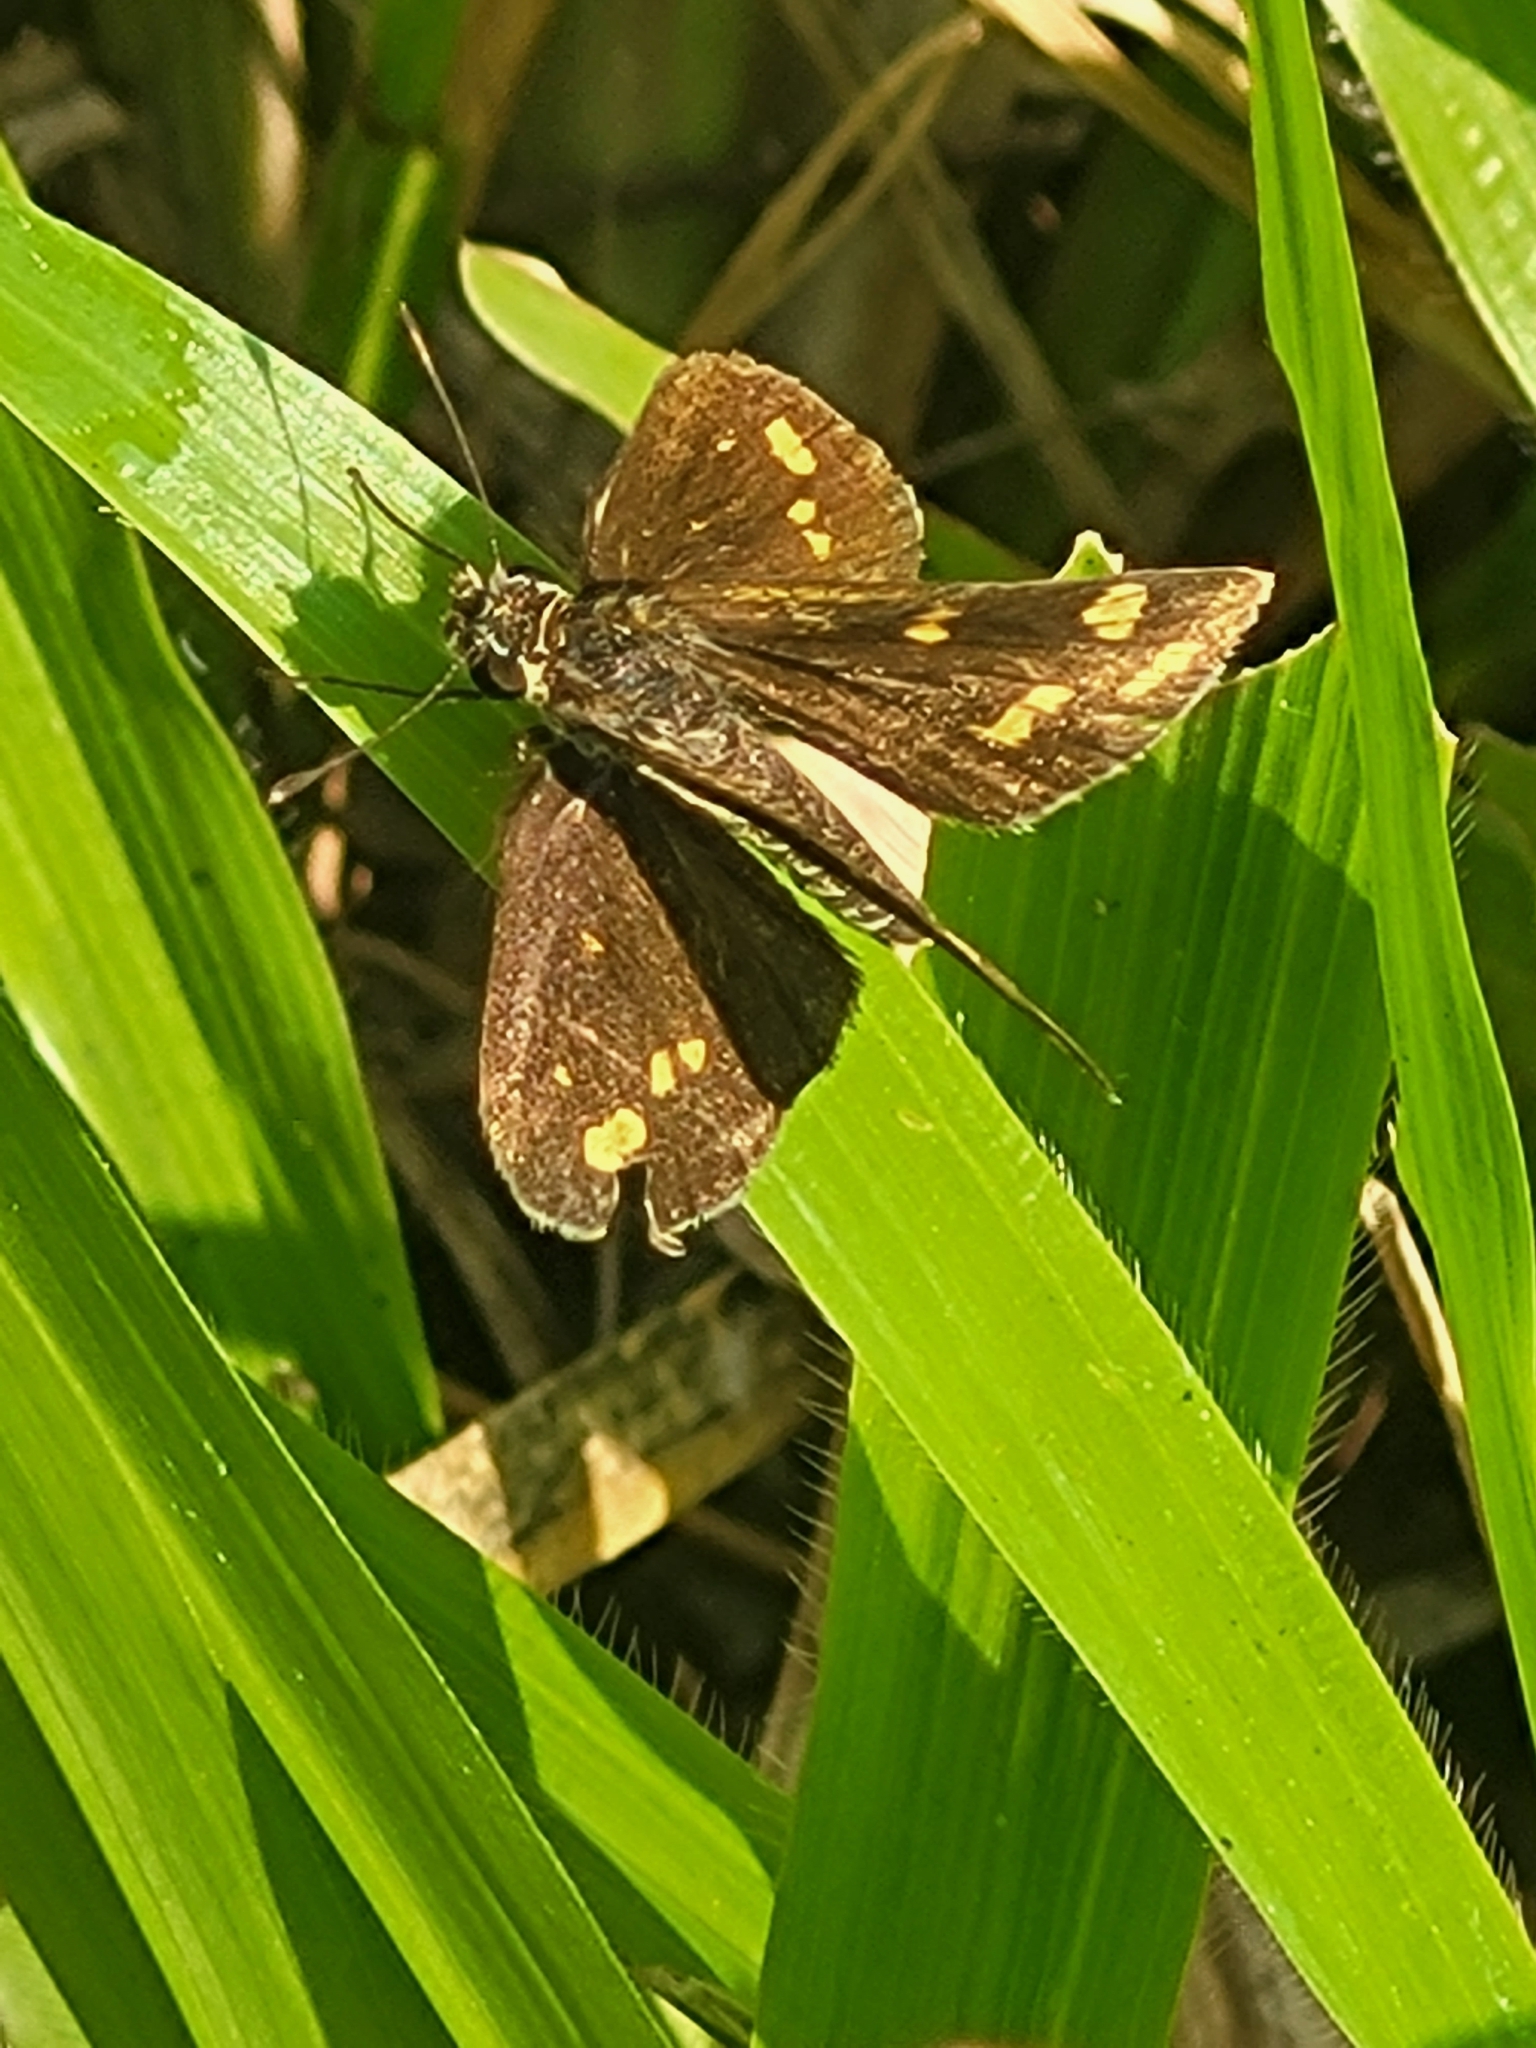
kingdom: Animalia
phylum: Arthropoda
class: Insecta
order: Lepidoptera
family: Hesperiidae
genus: Taractrocera
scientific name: Taractrocera ceramas
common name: Tamil grass dart
